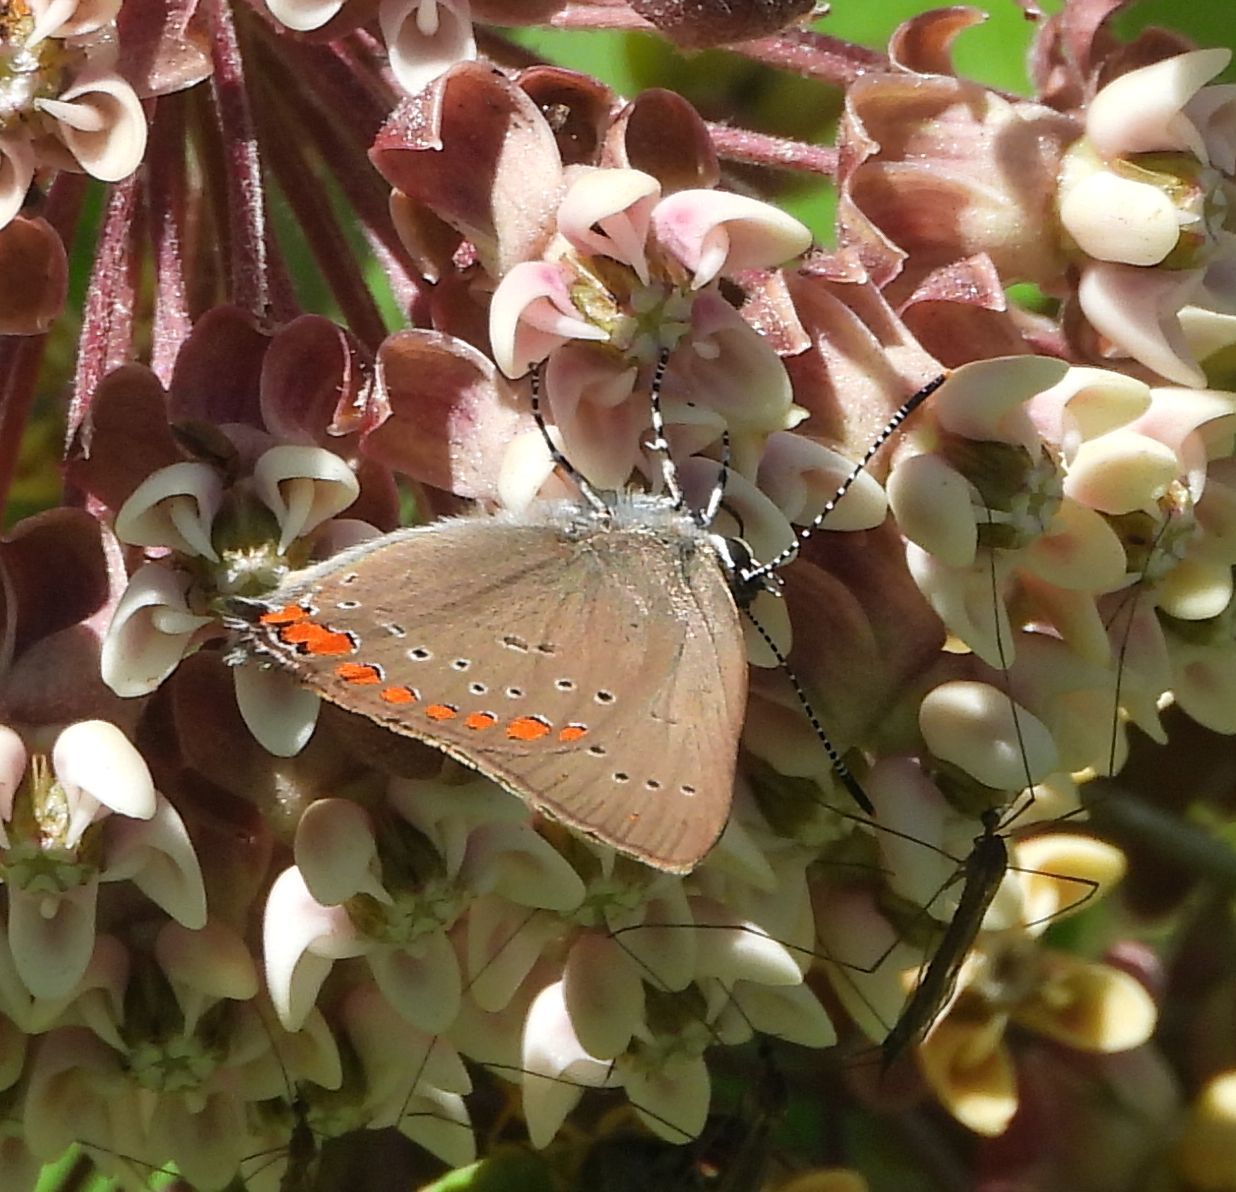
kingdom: Animalia
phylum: Arthropoda
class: Insecta
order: Lepidoptera
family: Lycaenidae
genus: Harkenclenus
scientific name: Harkenclenus titus
